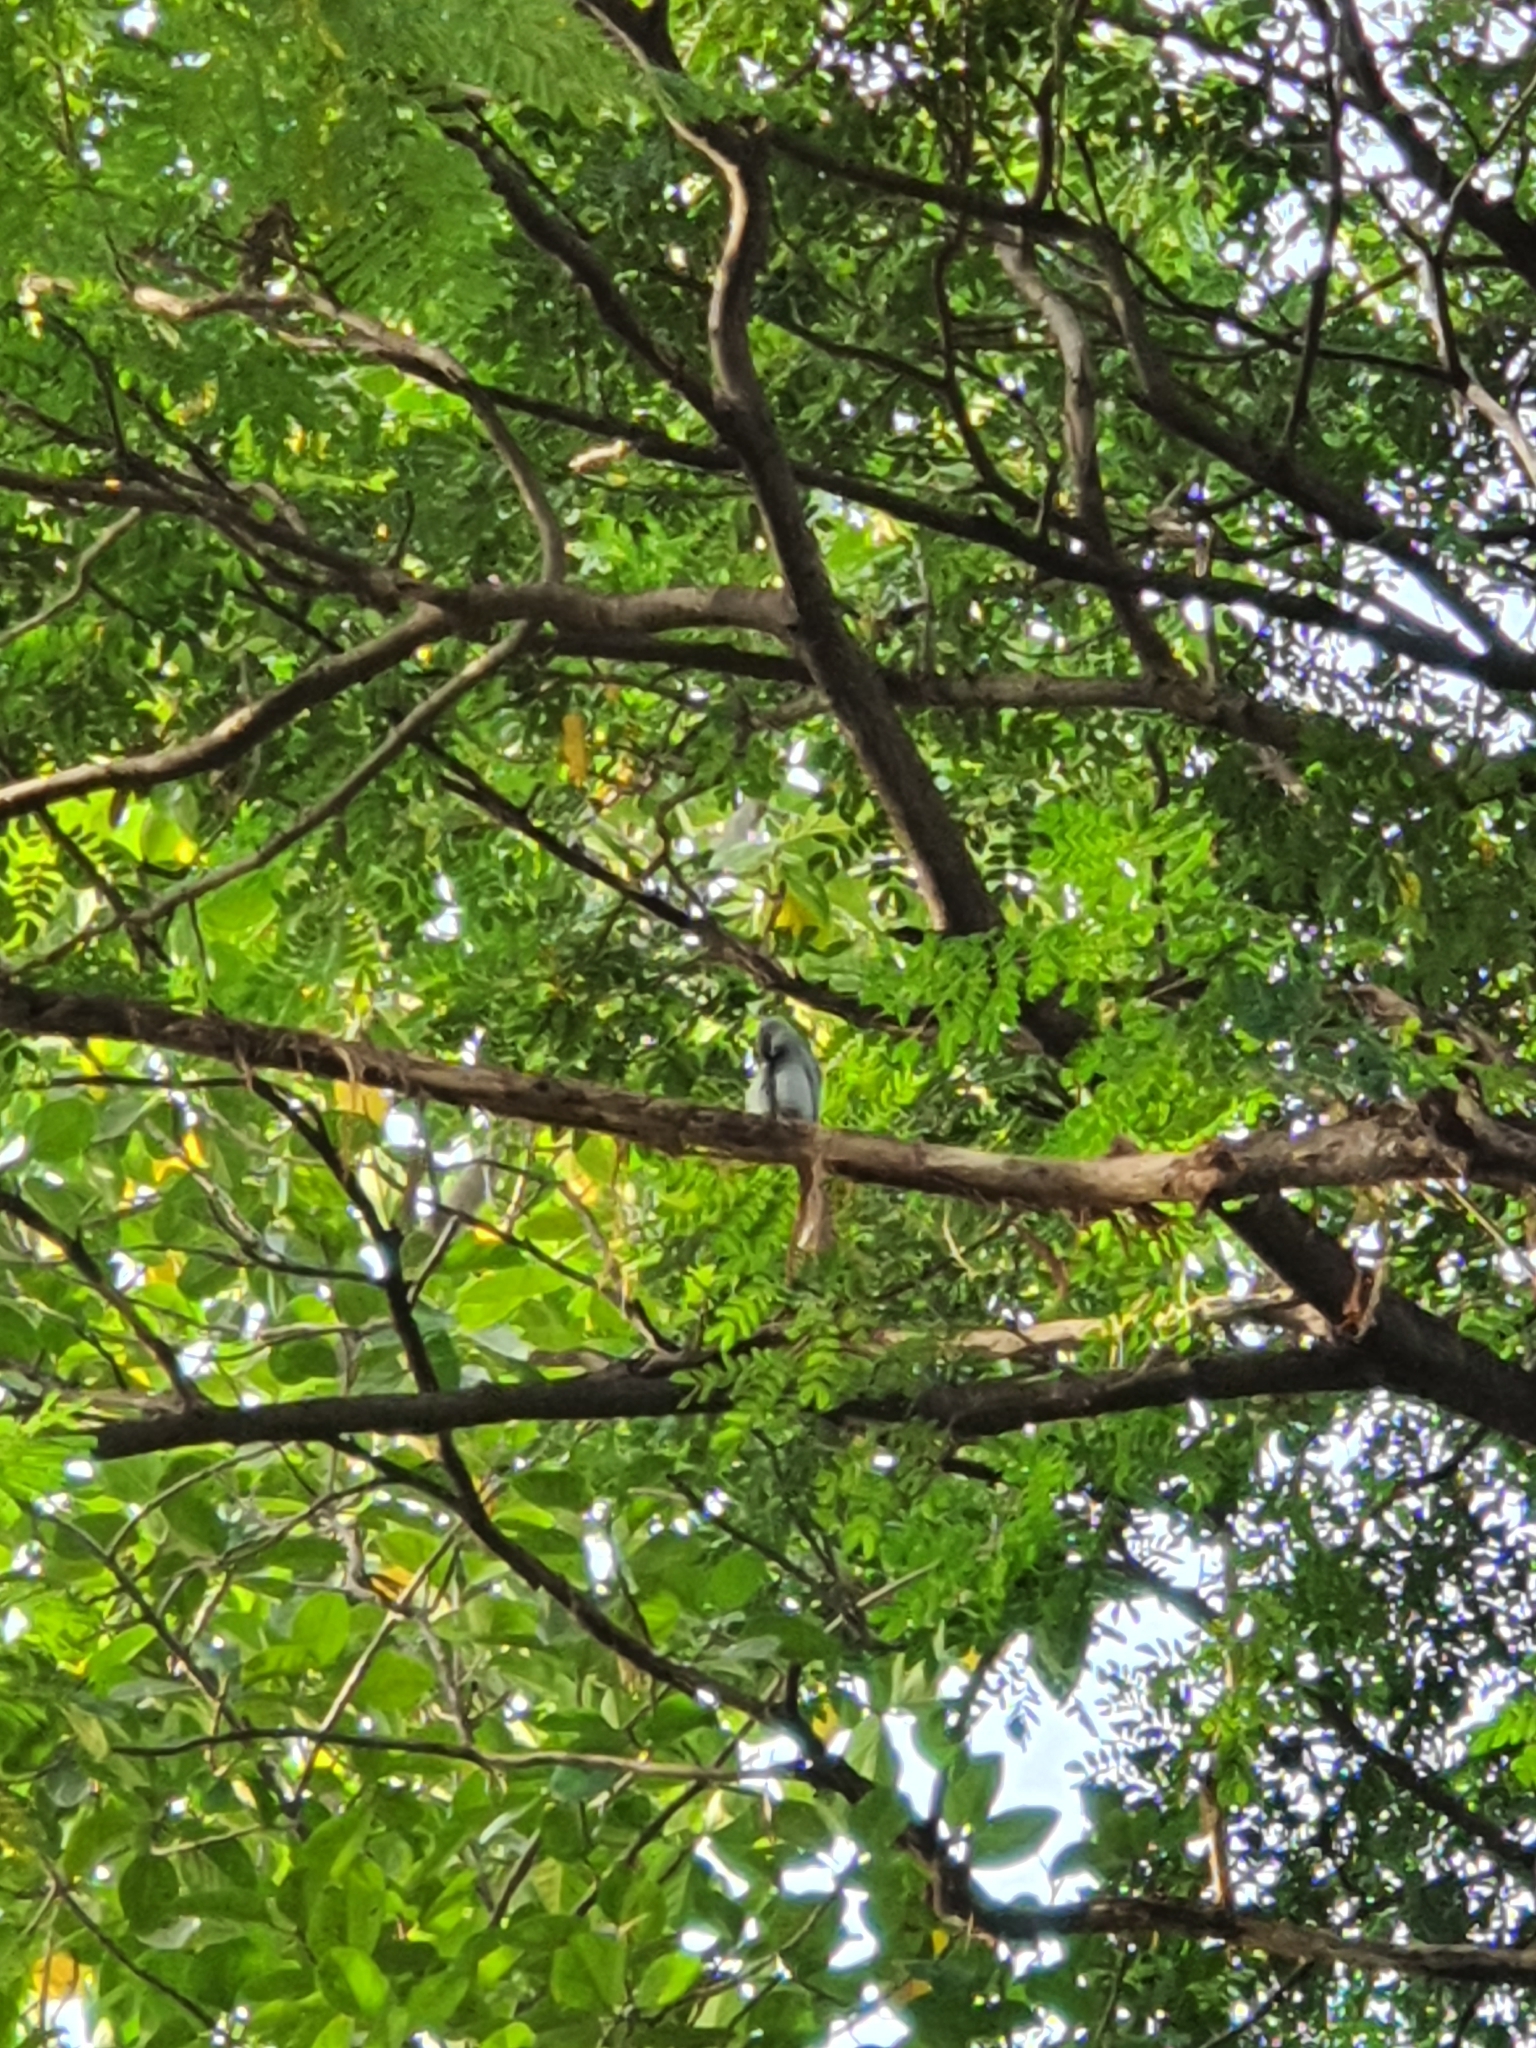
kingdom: Animalia
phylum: Chordata
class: Aves
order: Passeriformes
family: Dicruridae
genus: Dicrurus
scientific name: Dicrurus leucophaeus
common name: Ashy drongo
